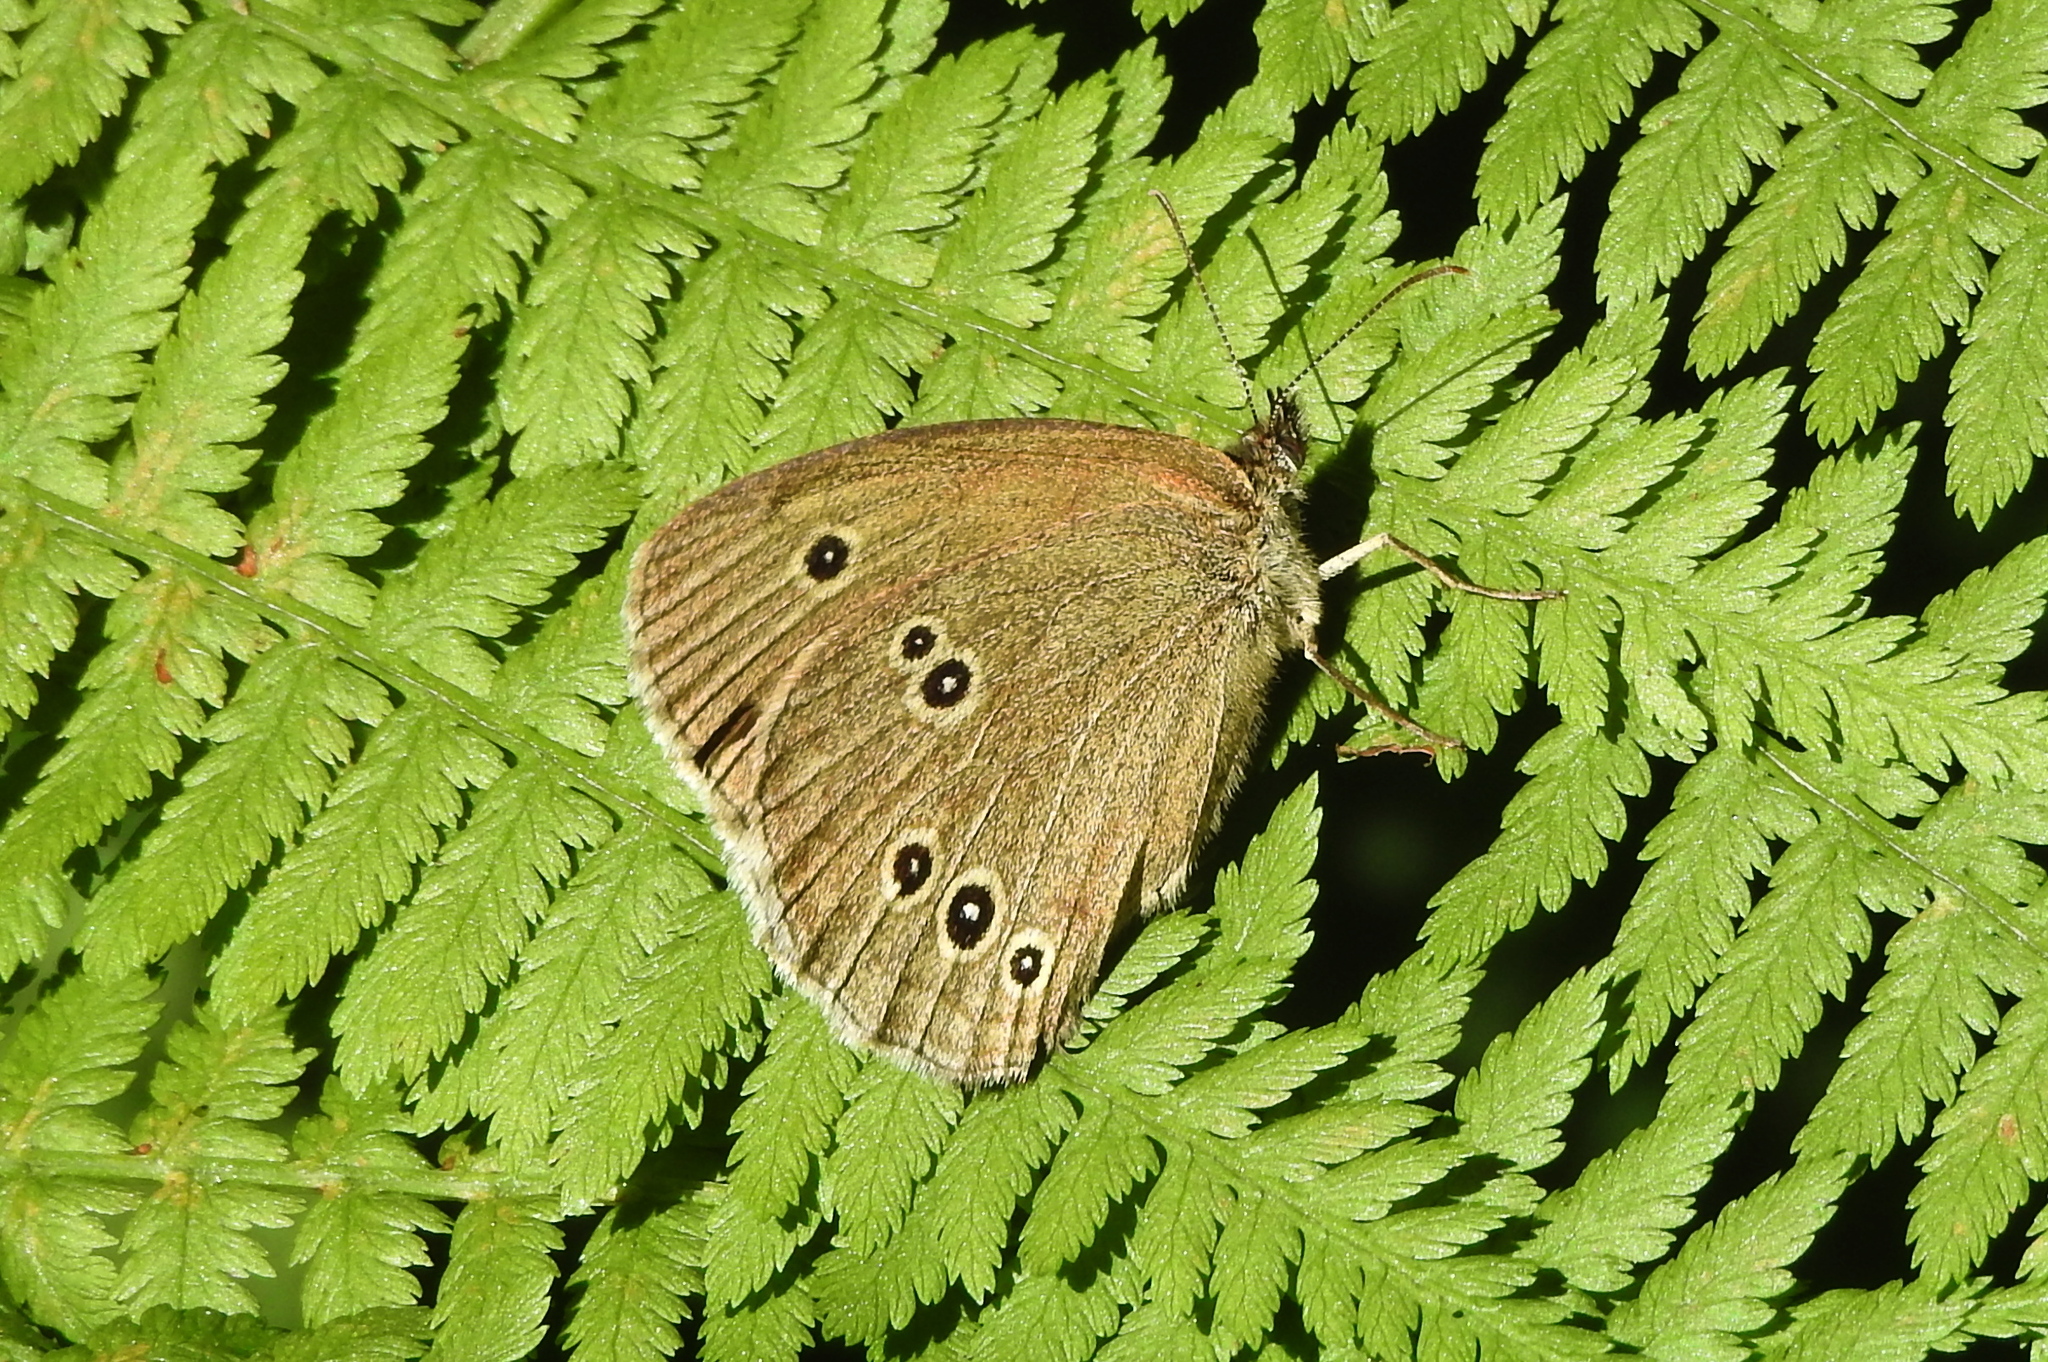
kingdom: Animalia
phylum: Arthropoda
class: Insecta
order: Lepidoptera
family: Nymphalidae
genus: Aphantopus
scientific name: Aphantopus hyperantus
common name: Ringlet
